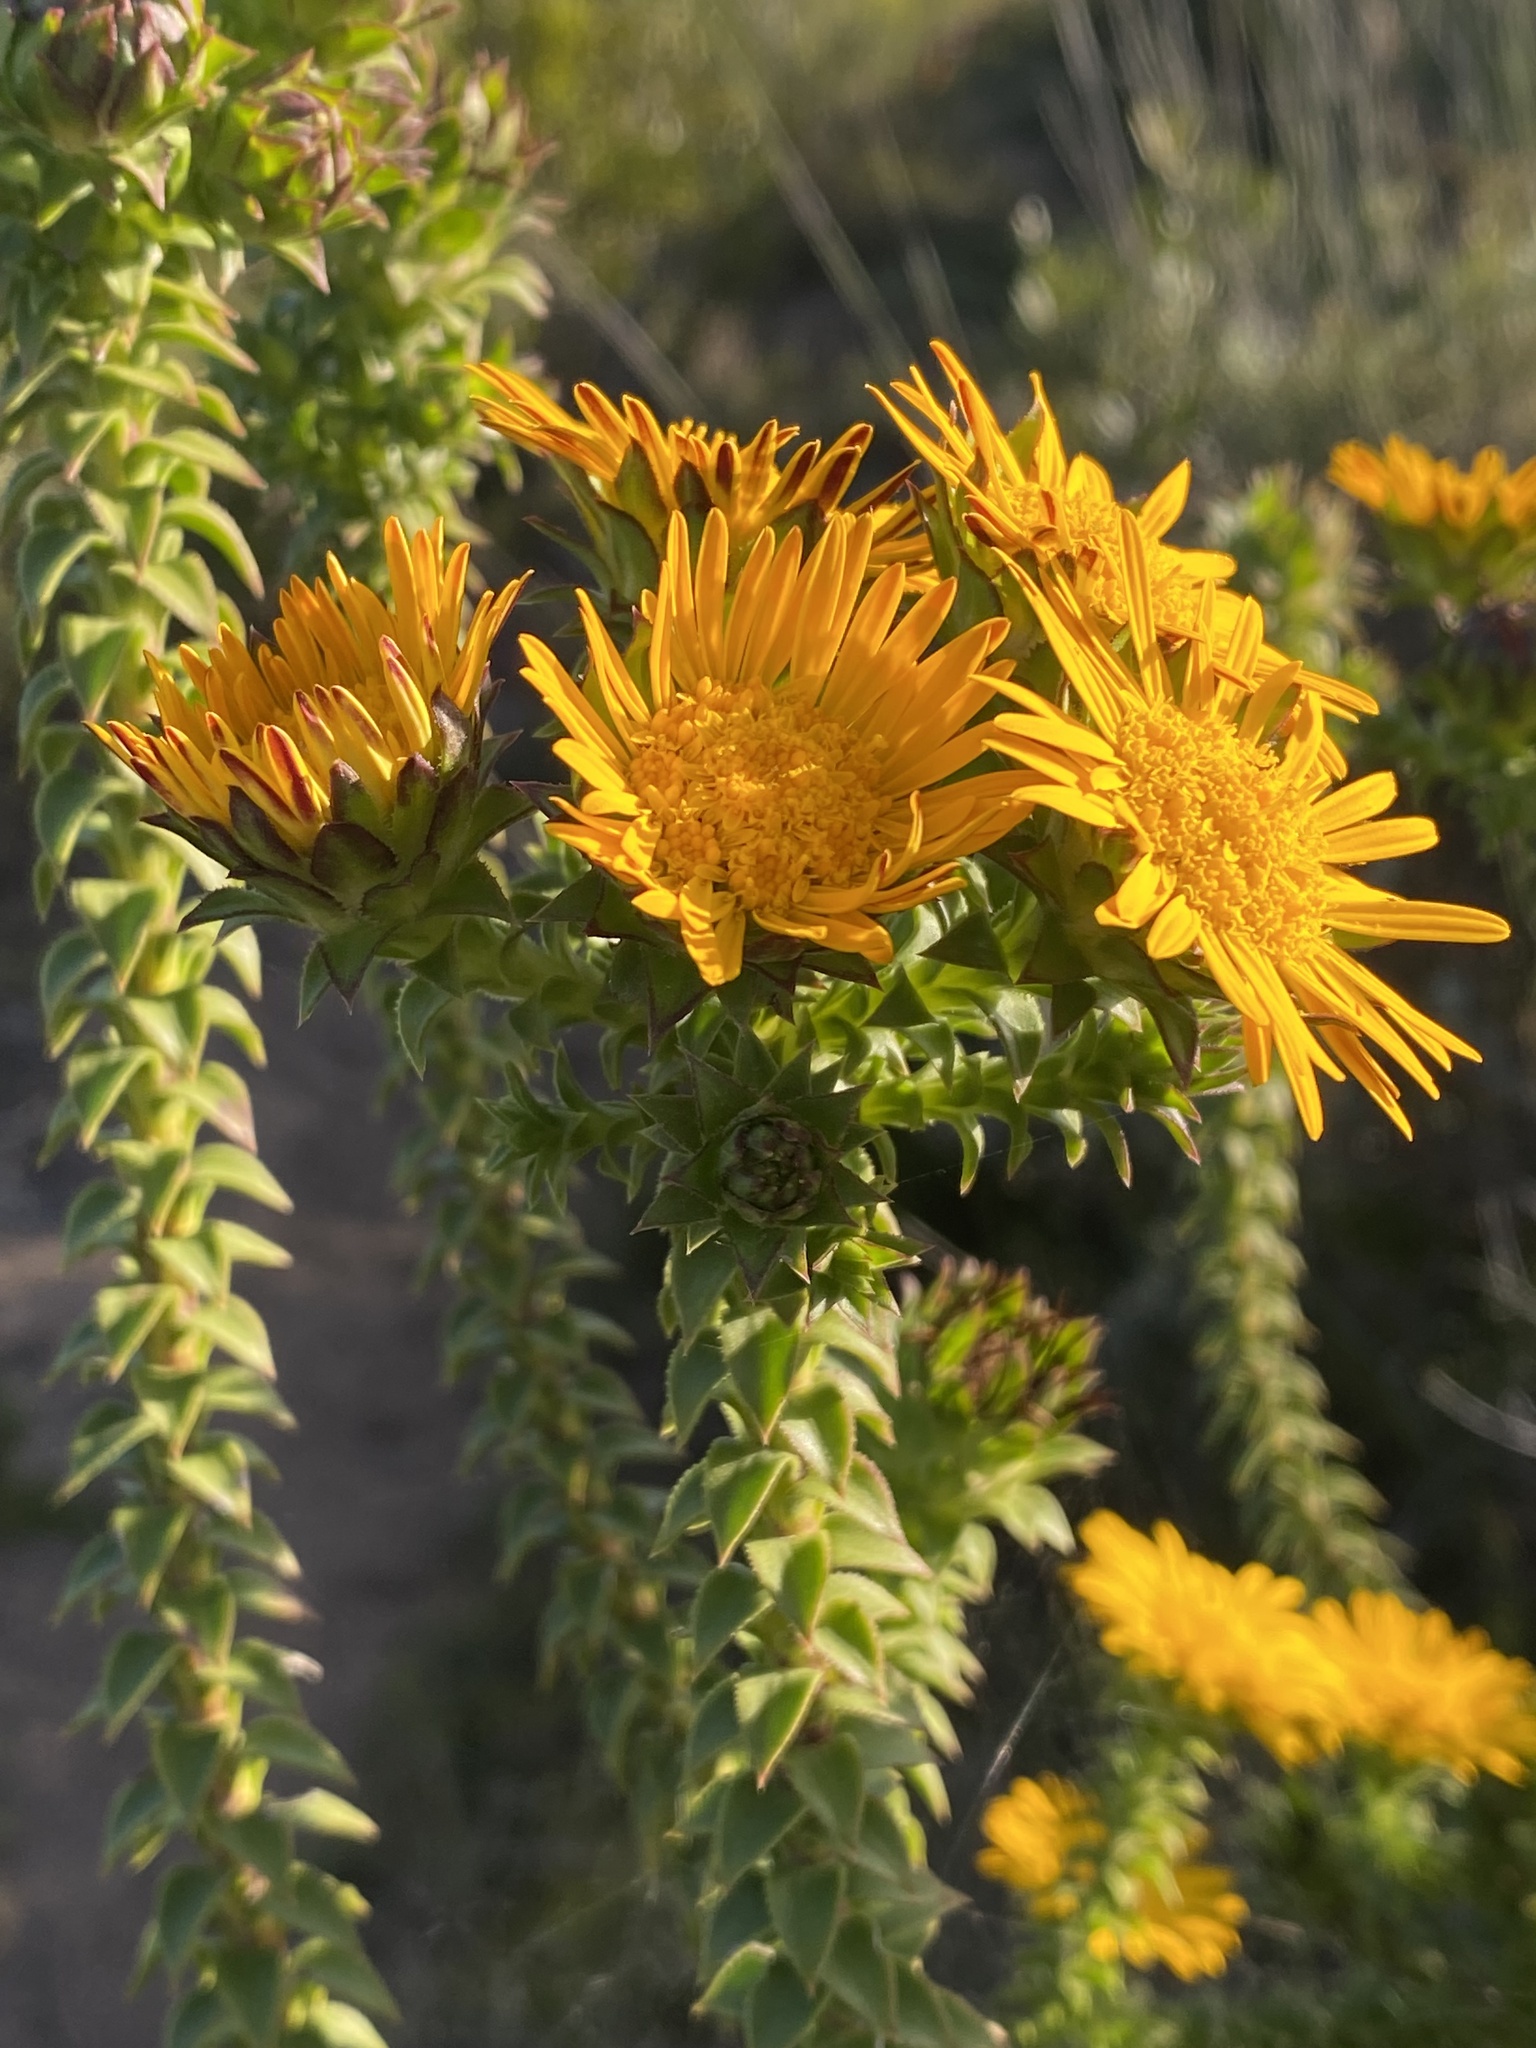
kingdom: Plantae
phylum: Tracheophyta
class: Magnoliopsida
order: Asterales
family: Asteraceae
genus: Oedera
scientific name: Oedera imbricata
